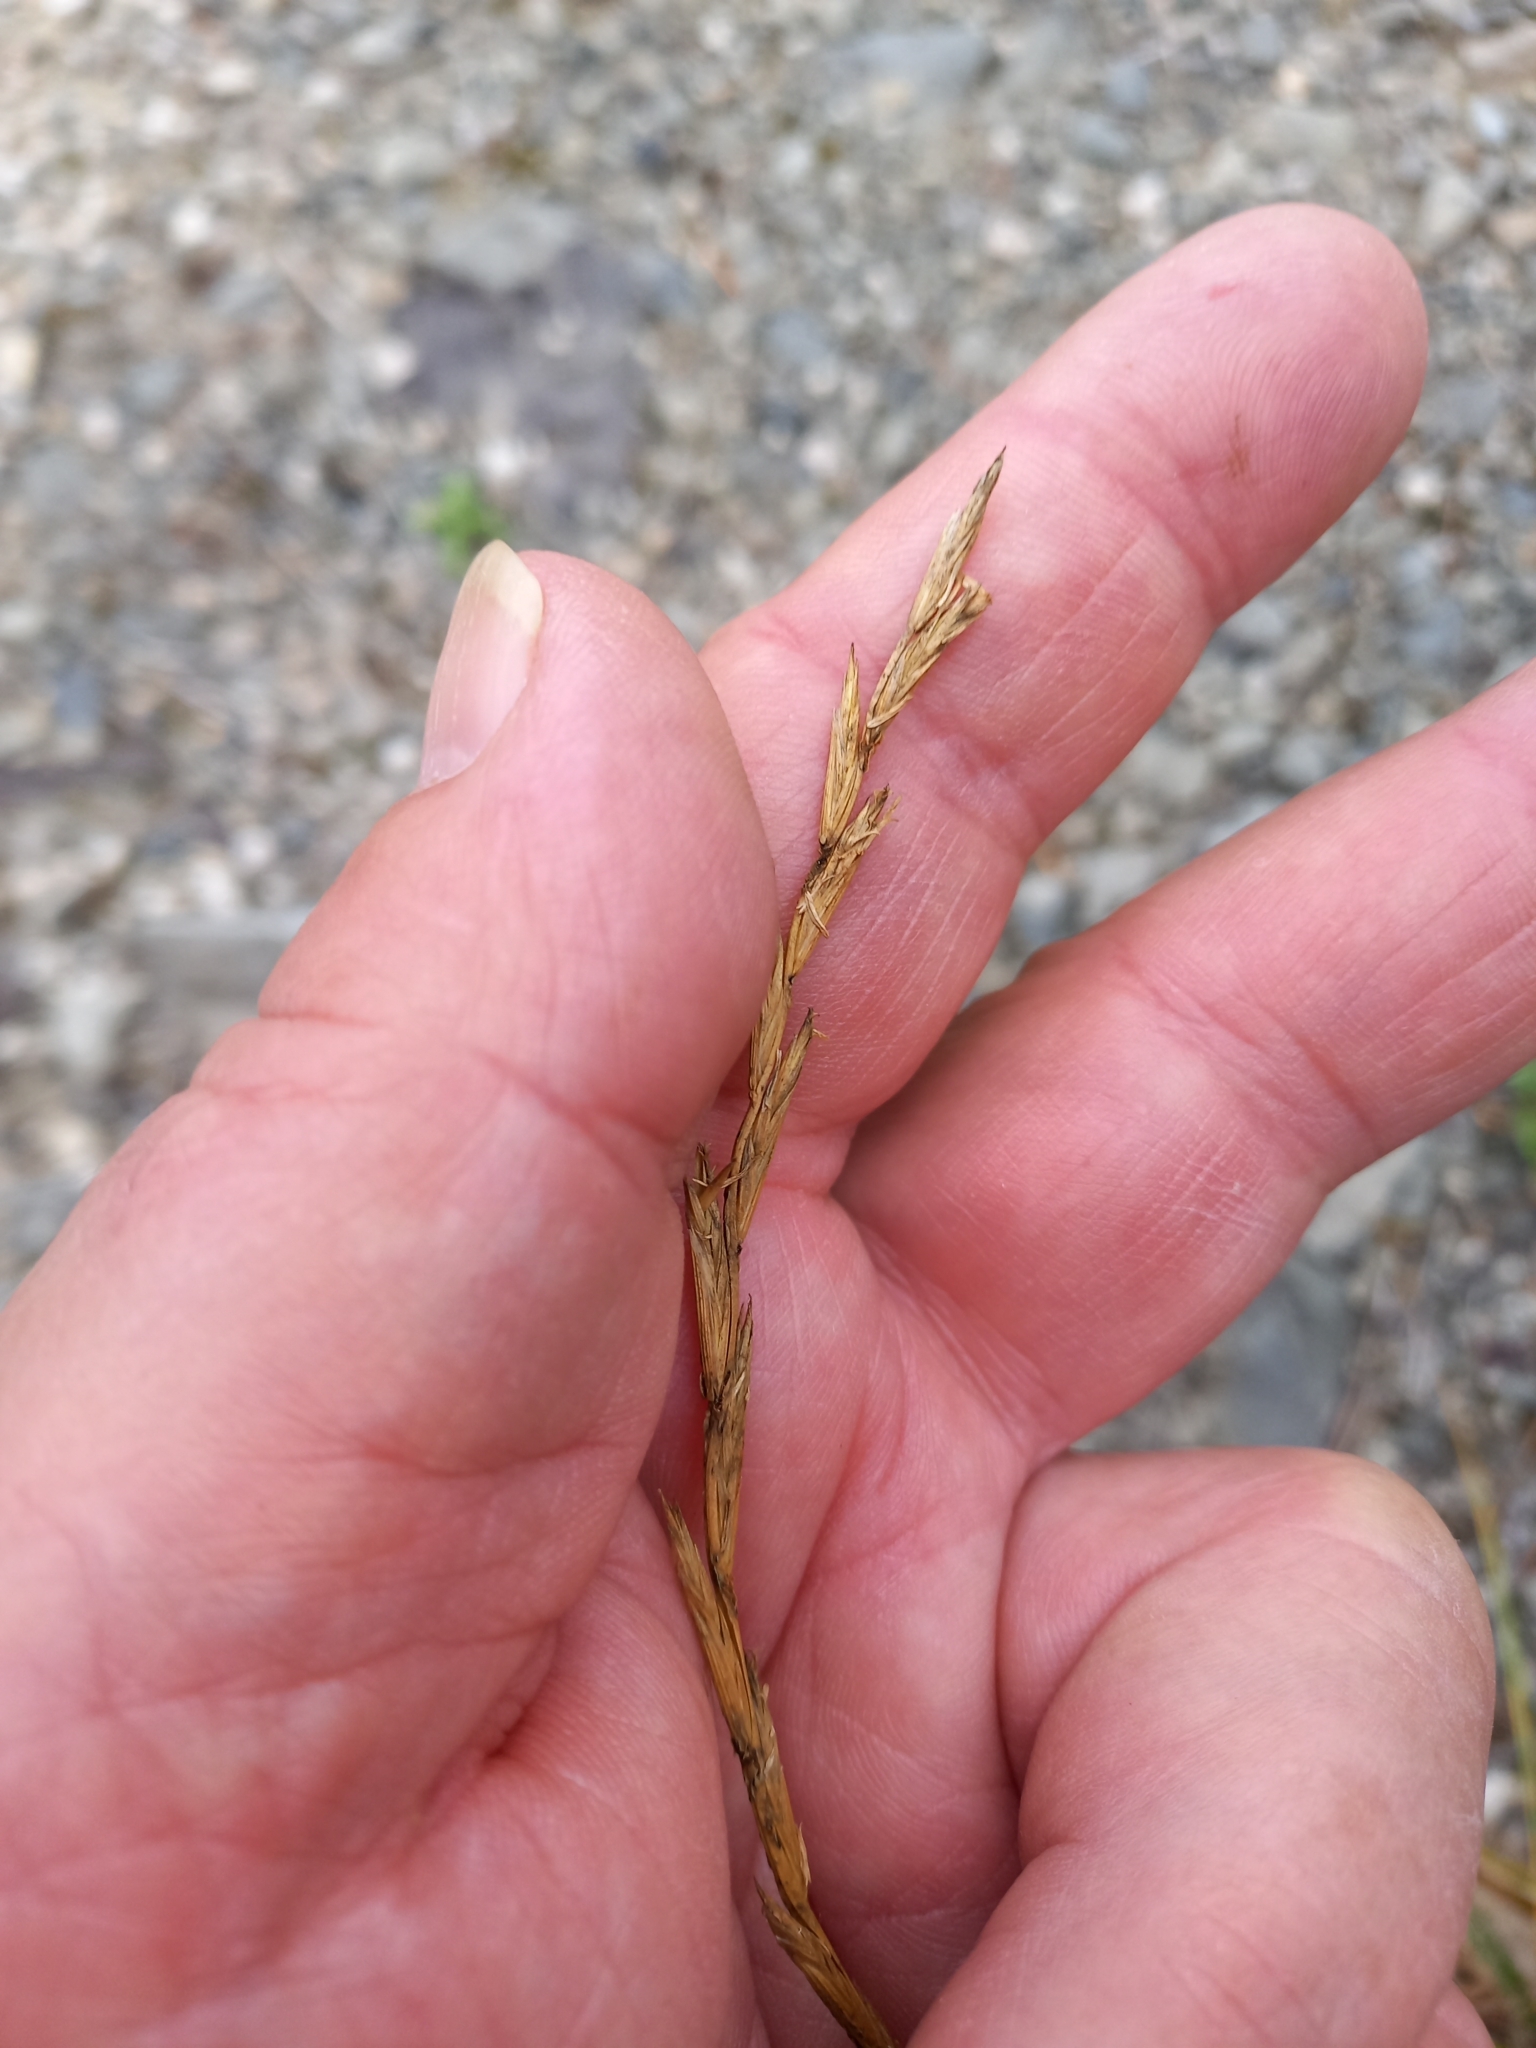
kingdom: Plantae
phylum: Tracheophyta
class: Liliopsida
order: Poales
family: Poaceae
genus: Lolium
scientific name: Lolium perenne
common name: Perennial ryegrass
